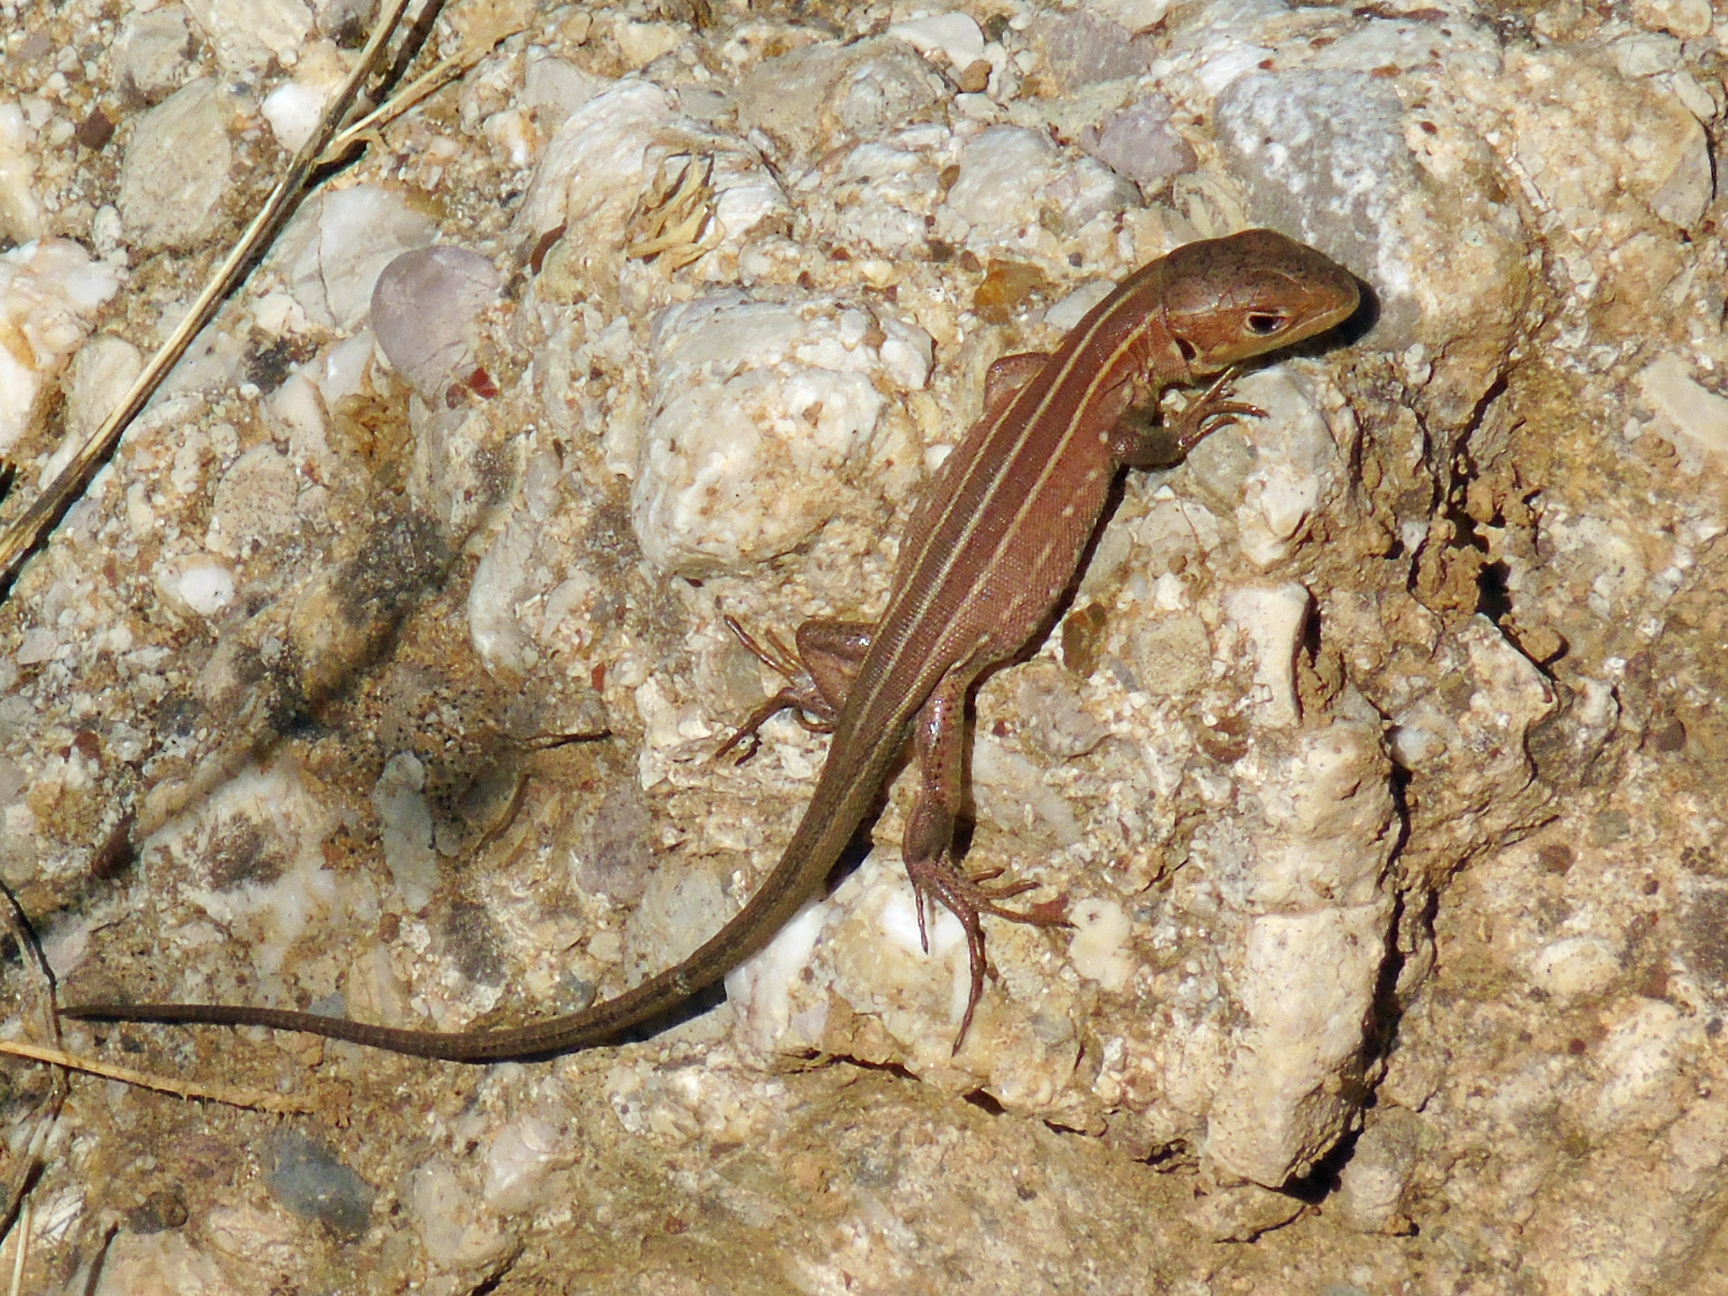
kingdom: Animalia
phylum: Chordata
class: Squamata
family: Lacertidae
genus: Lacerta
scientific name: Lacerta trilineata
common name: Balkan green lizard
